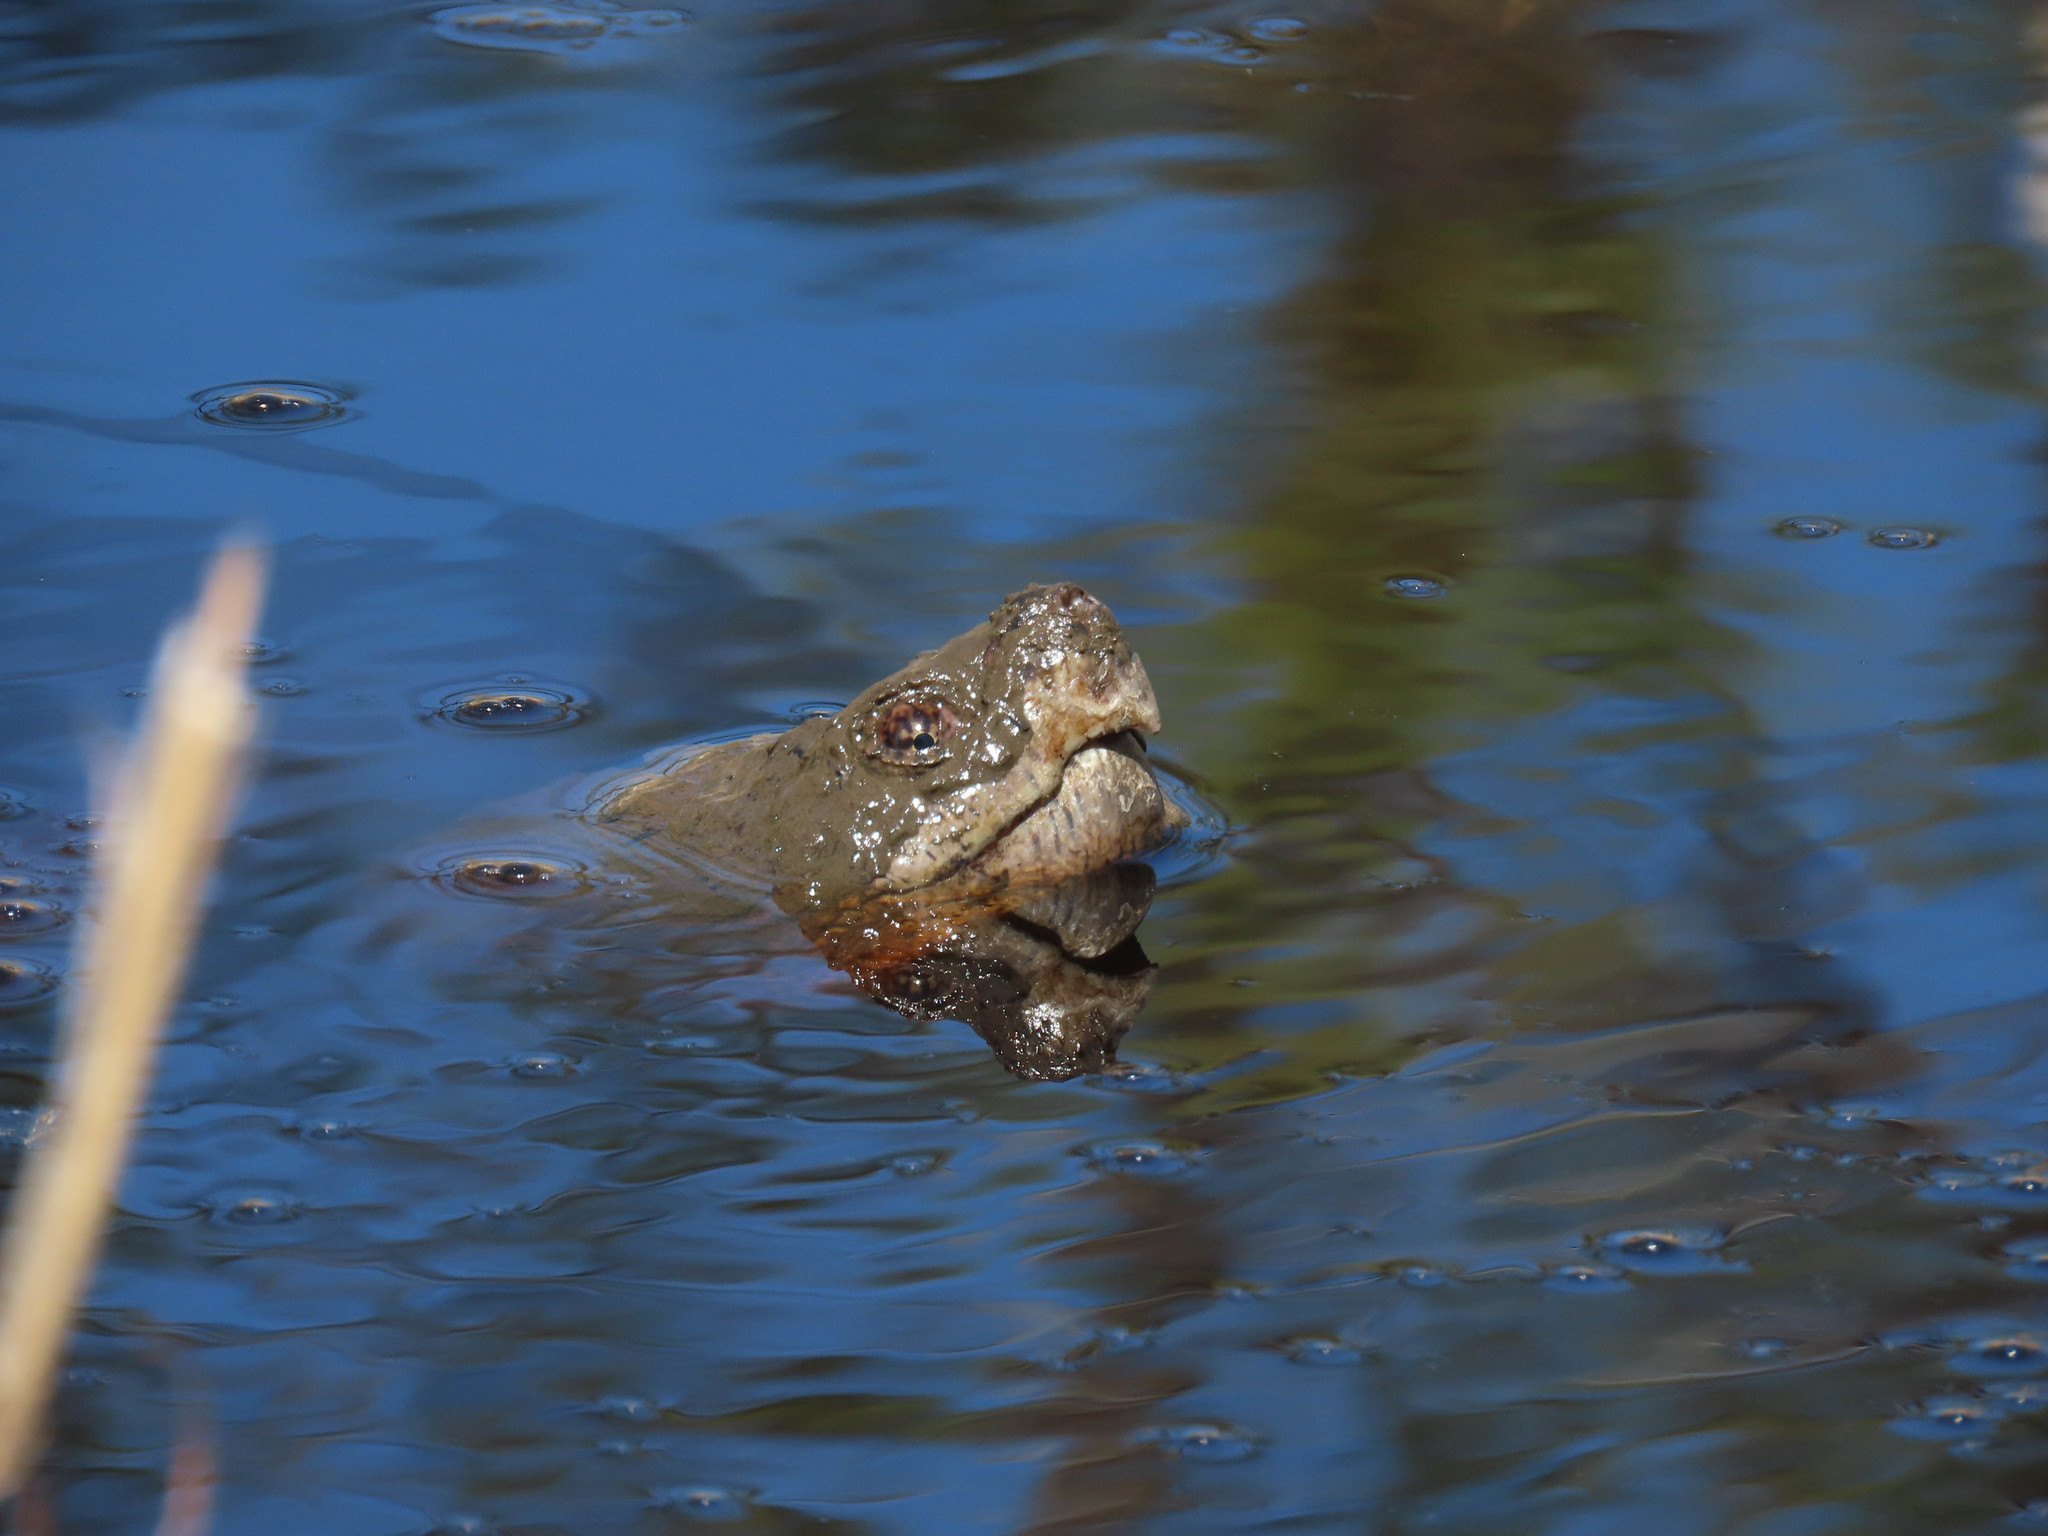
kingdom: Animalia
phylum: Chordata
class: Testudines
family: Chelydridae
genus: Chelydra
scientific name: Chelydra serpentina
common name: Common snapping turtle
